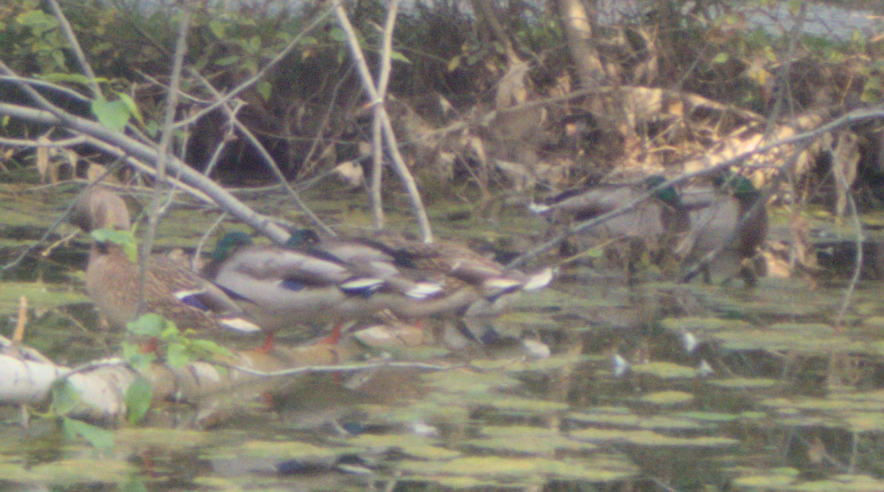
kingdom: Animalia
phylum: Chordata
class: Aves
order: Anseriformes
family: Anatidae
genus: Anas
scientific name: Anas platyrhynchos
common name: Mallard
